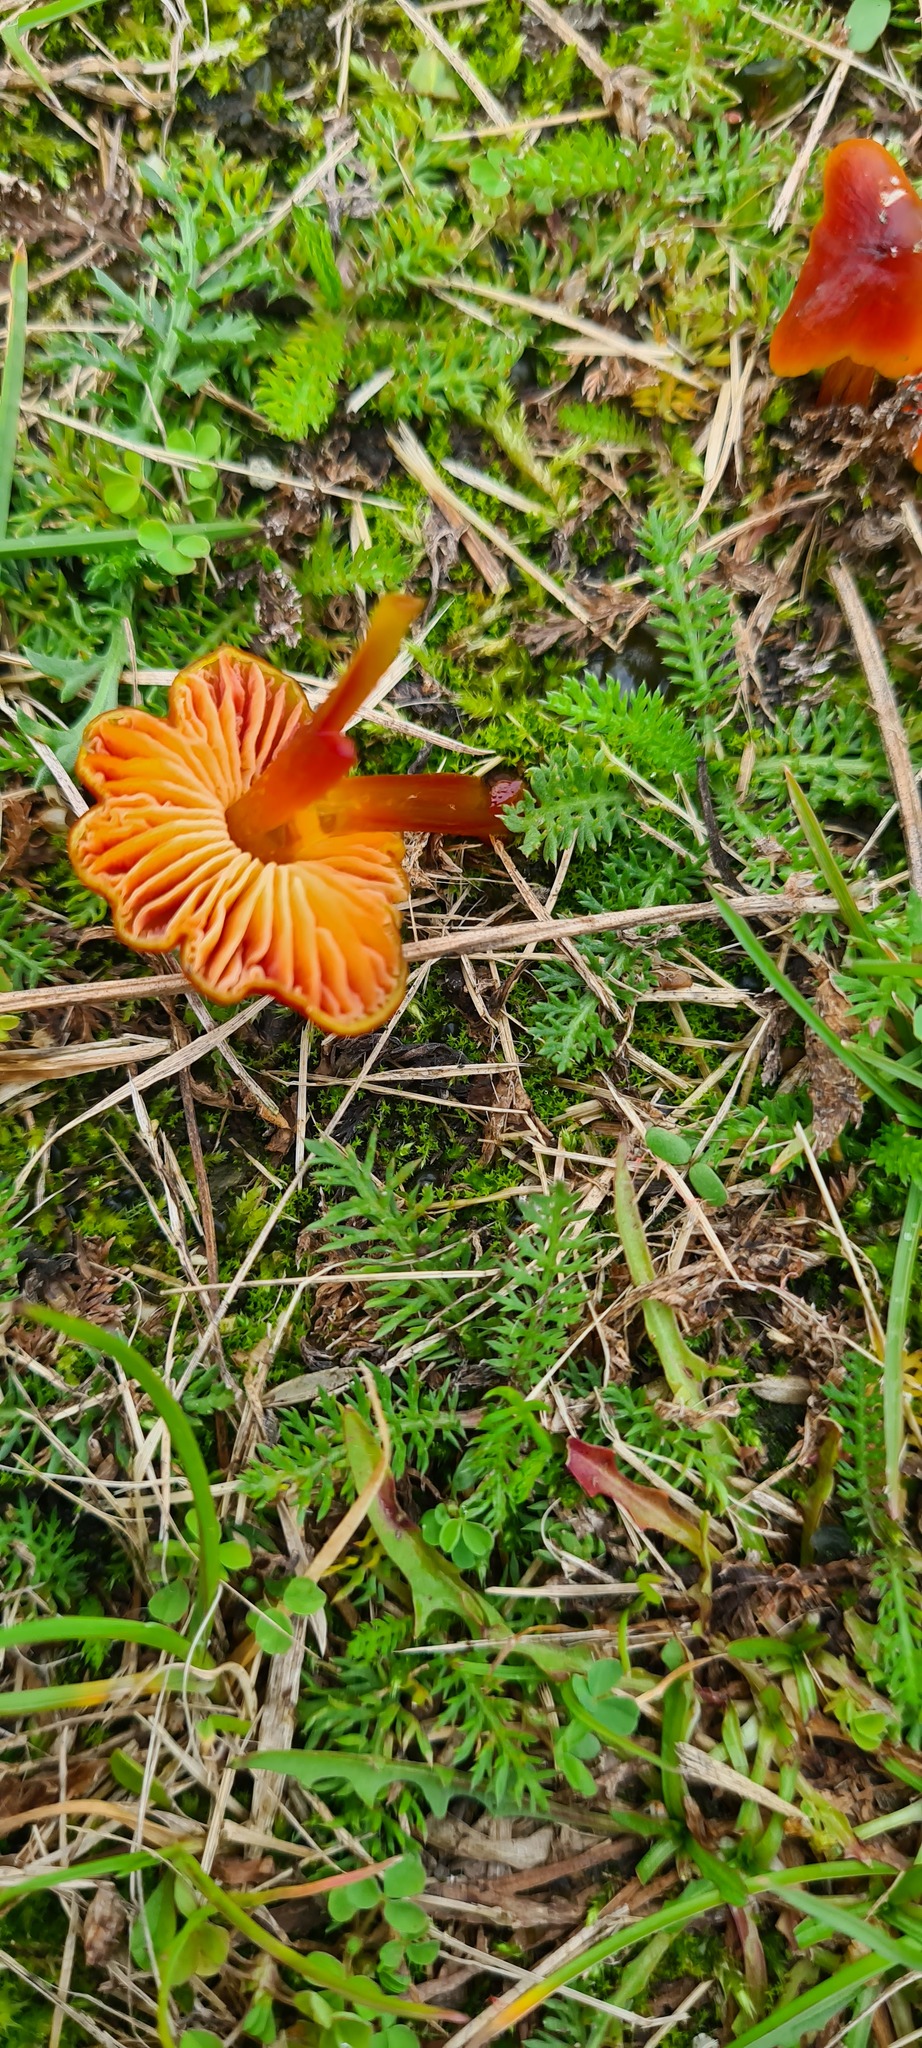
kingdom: Fungi
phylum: Basidiomycota
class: Agaricomycetes
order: Agaricales
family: Hygrophoraceae
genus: Hygrocybe
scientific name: Hygrocybe conica
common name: Blackening wax-cap
